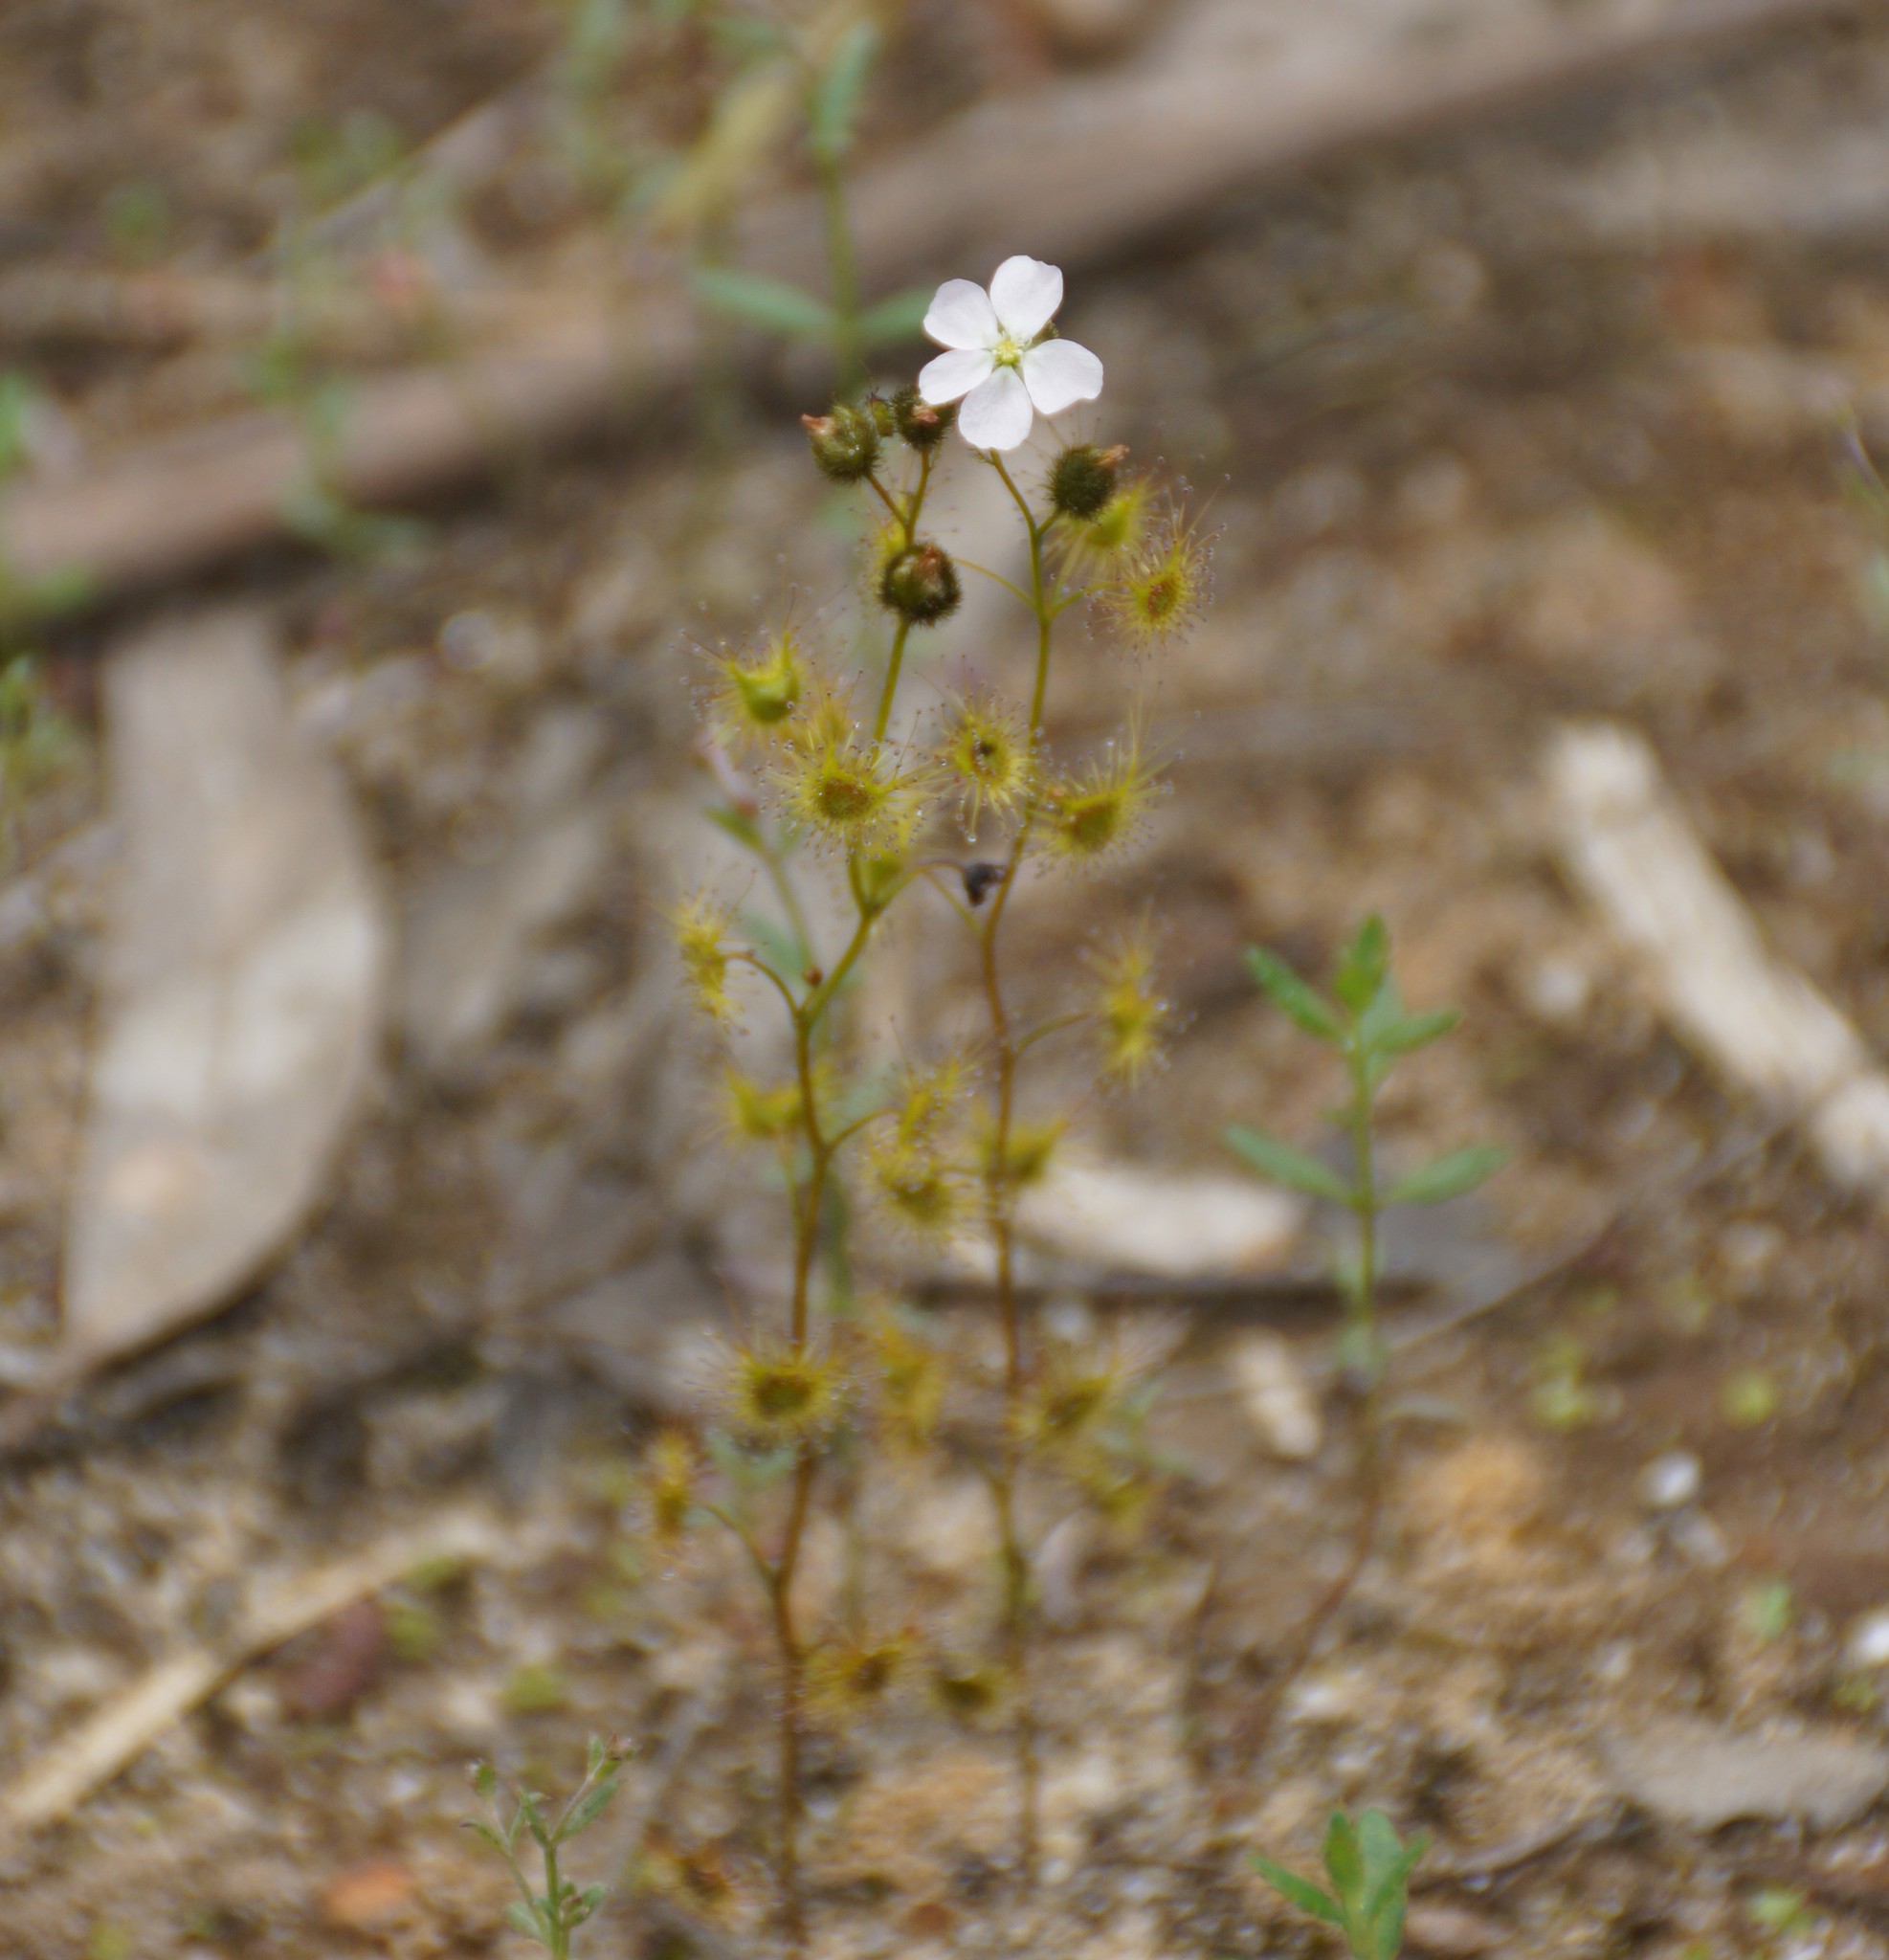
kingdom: Plantae
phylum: Tracheophyta
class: Magnoliopsida
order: Caryophyllales
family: Droseraceae
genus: Drosera
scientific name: Drosera gunniana
